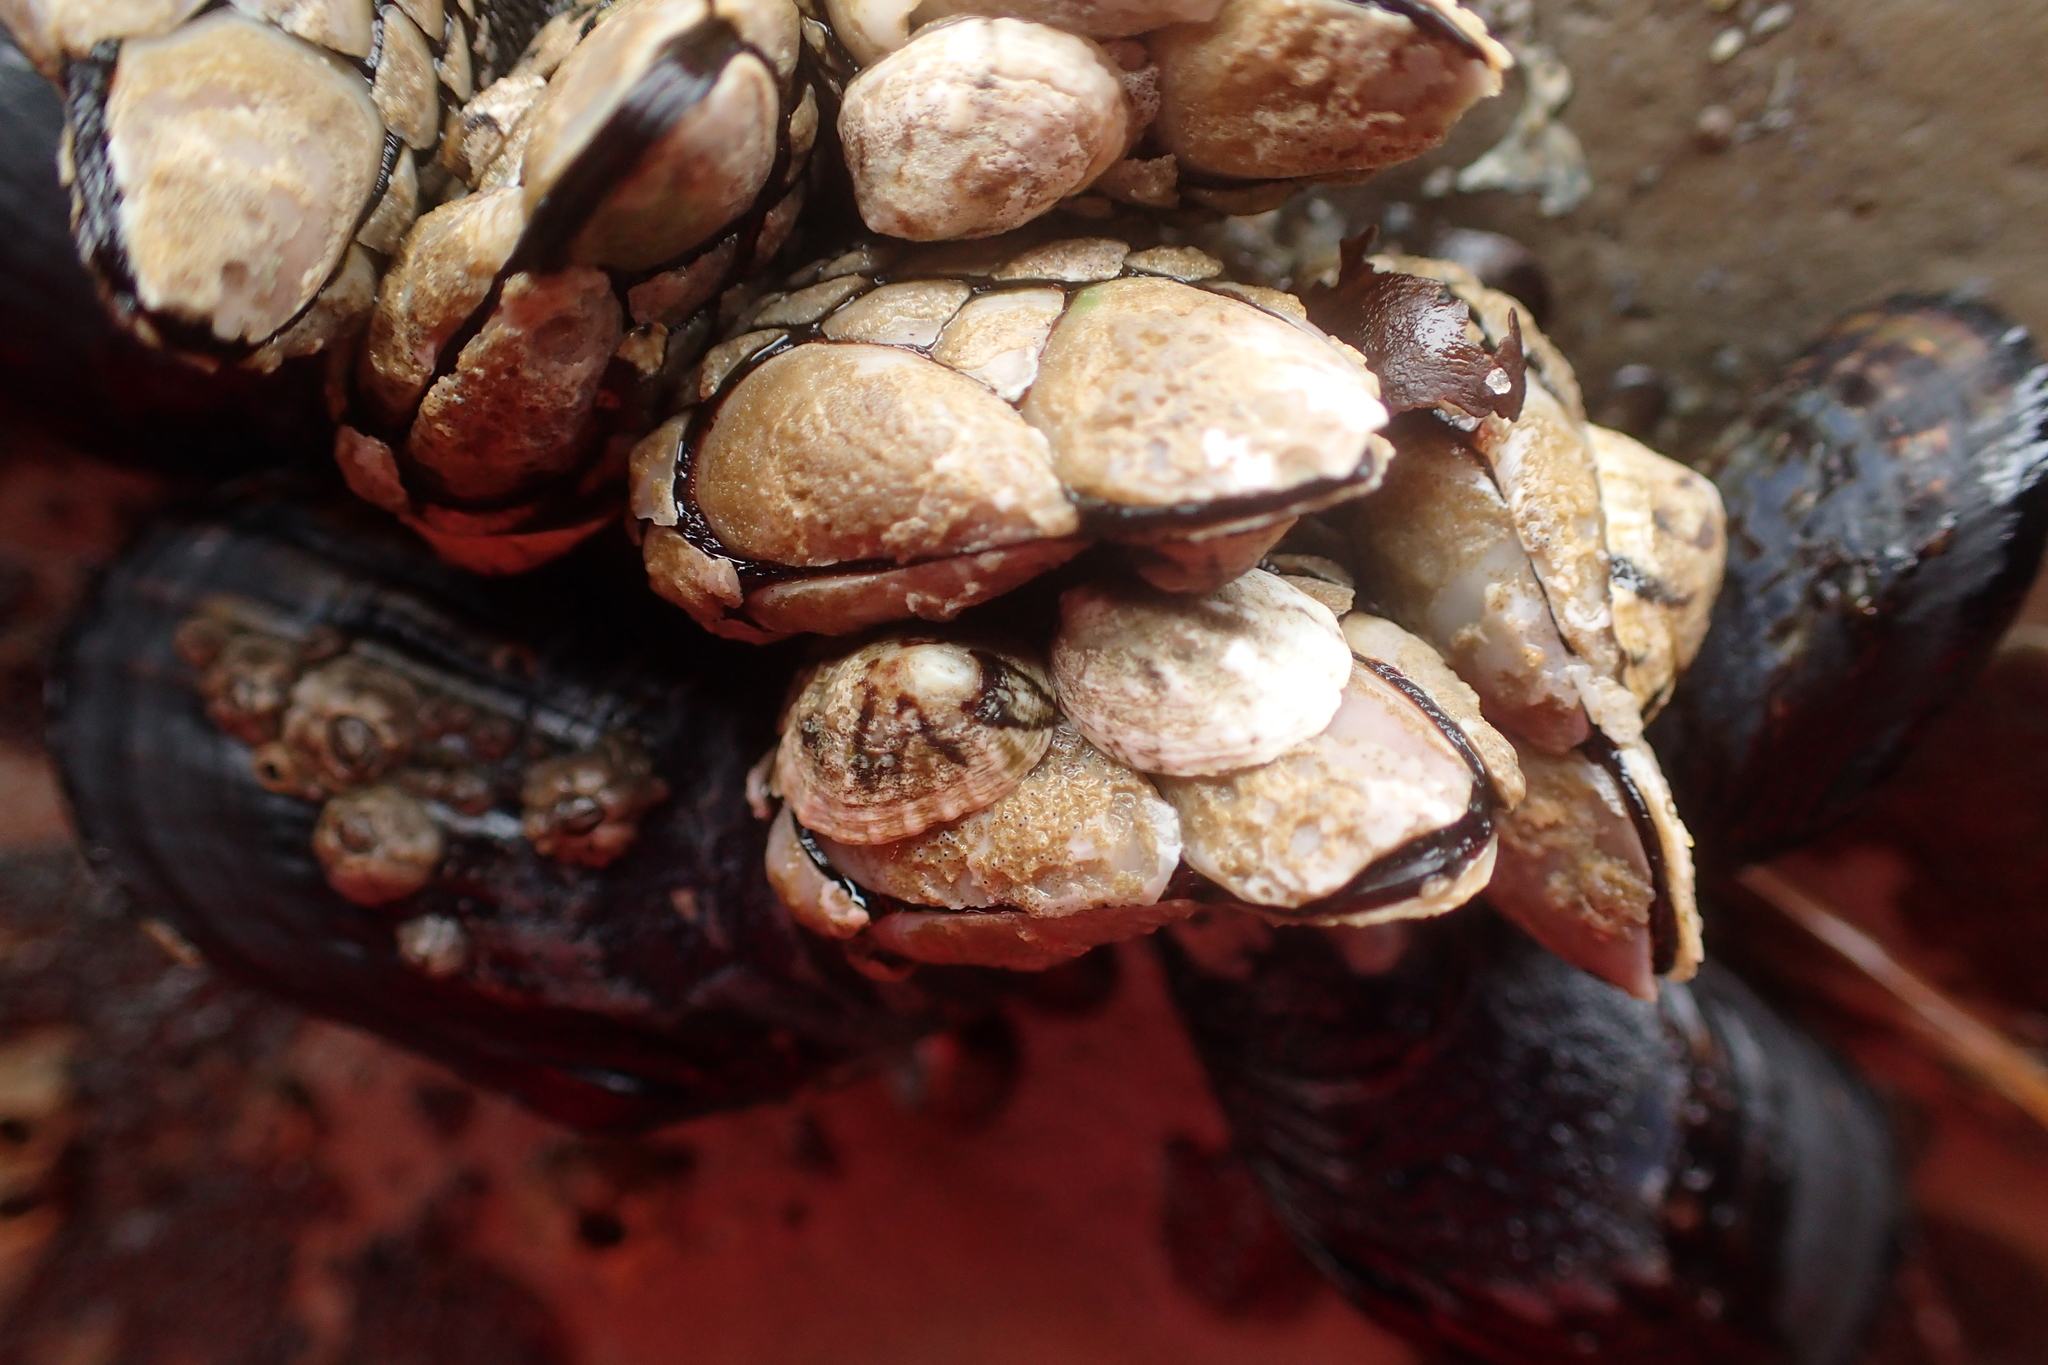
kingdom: Animalia
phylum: Arthropoda
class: Maxillopoda
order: Pedunculata
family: Pollicipedidae
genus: Pollicipes
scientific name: Pollicipes polymerus
